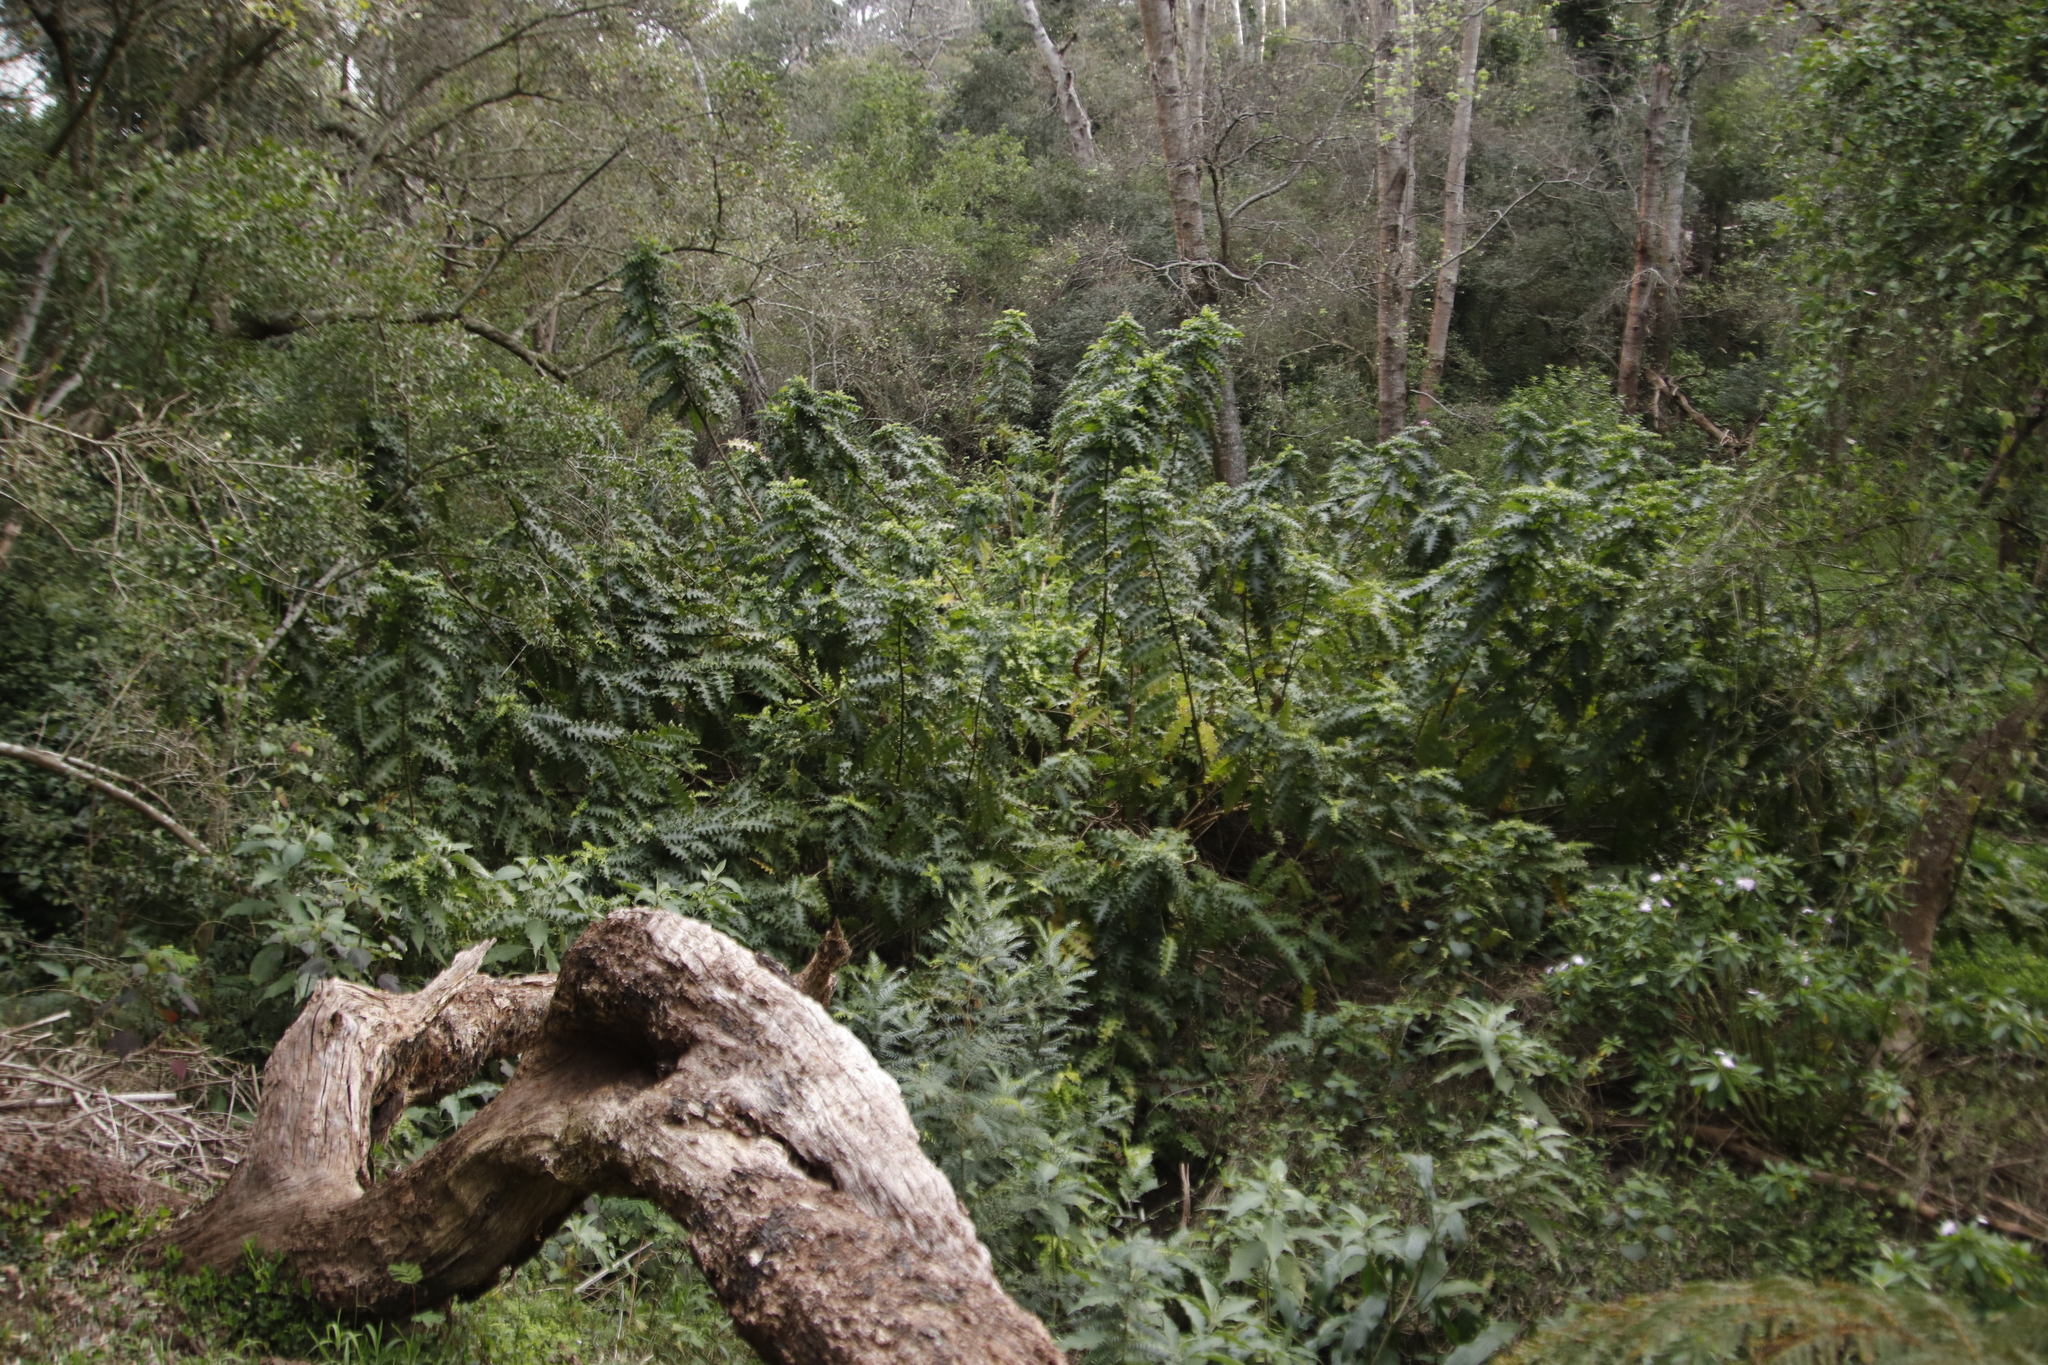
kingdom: Plantae
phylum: Tracheophyta
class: Magnoliopsida
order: Lamiales
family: Acanthaceae
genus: Acanthus
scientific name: Acanthus polystachyus
